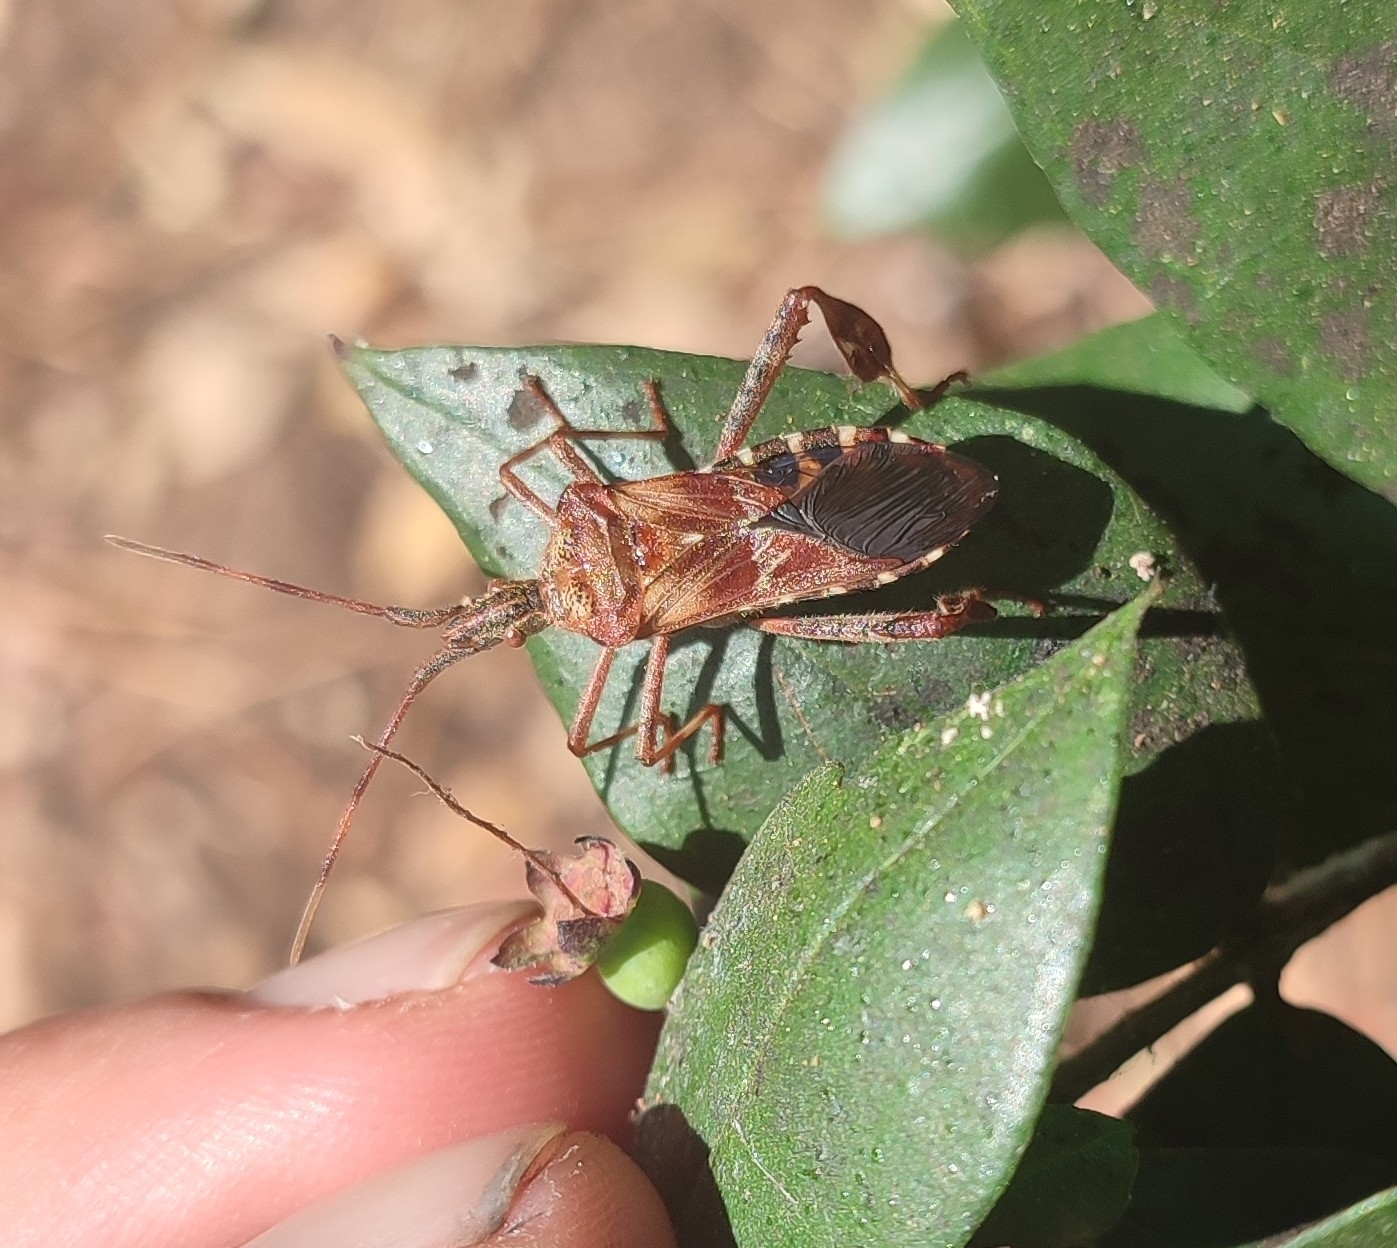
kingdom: Animalia
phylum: Arthropoda
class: Insecta
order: Hemiptera
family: Coreidae
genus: Leptoglossus
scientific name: Leptoglossus occidentalis
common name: Western conifer-seed bug
